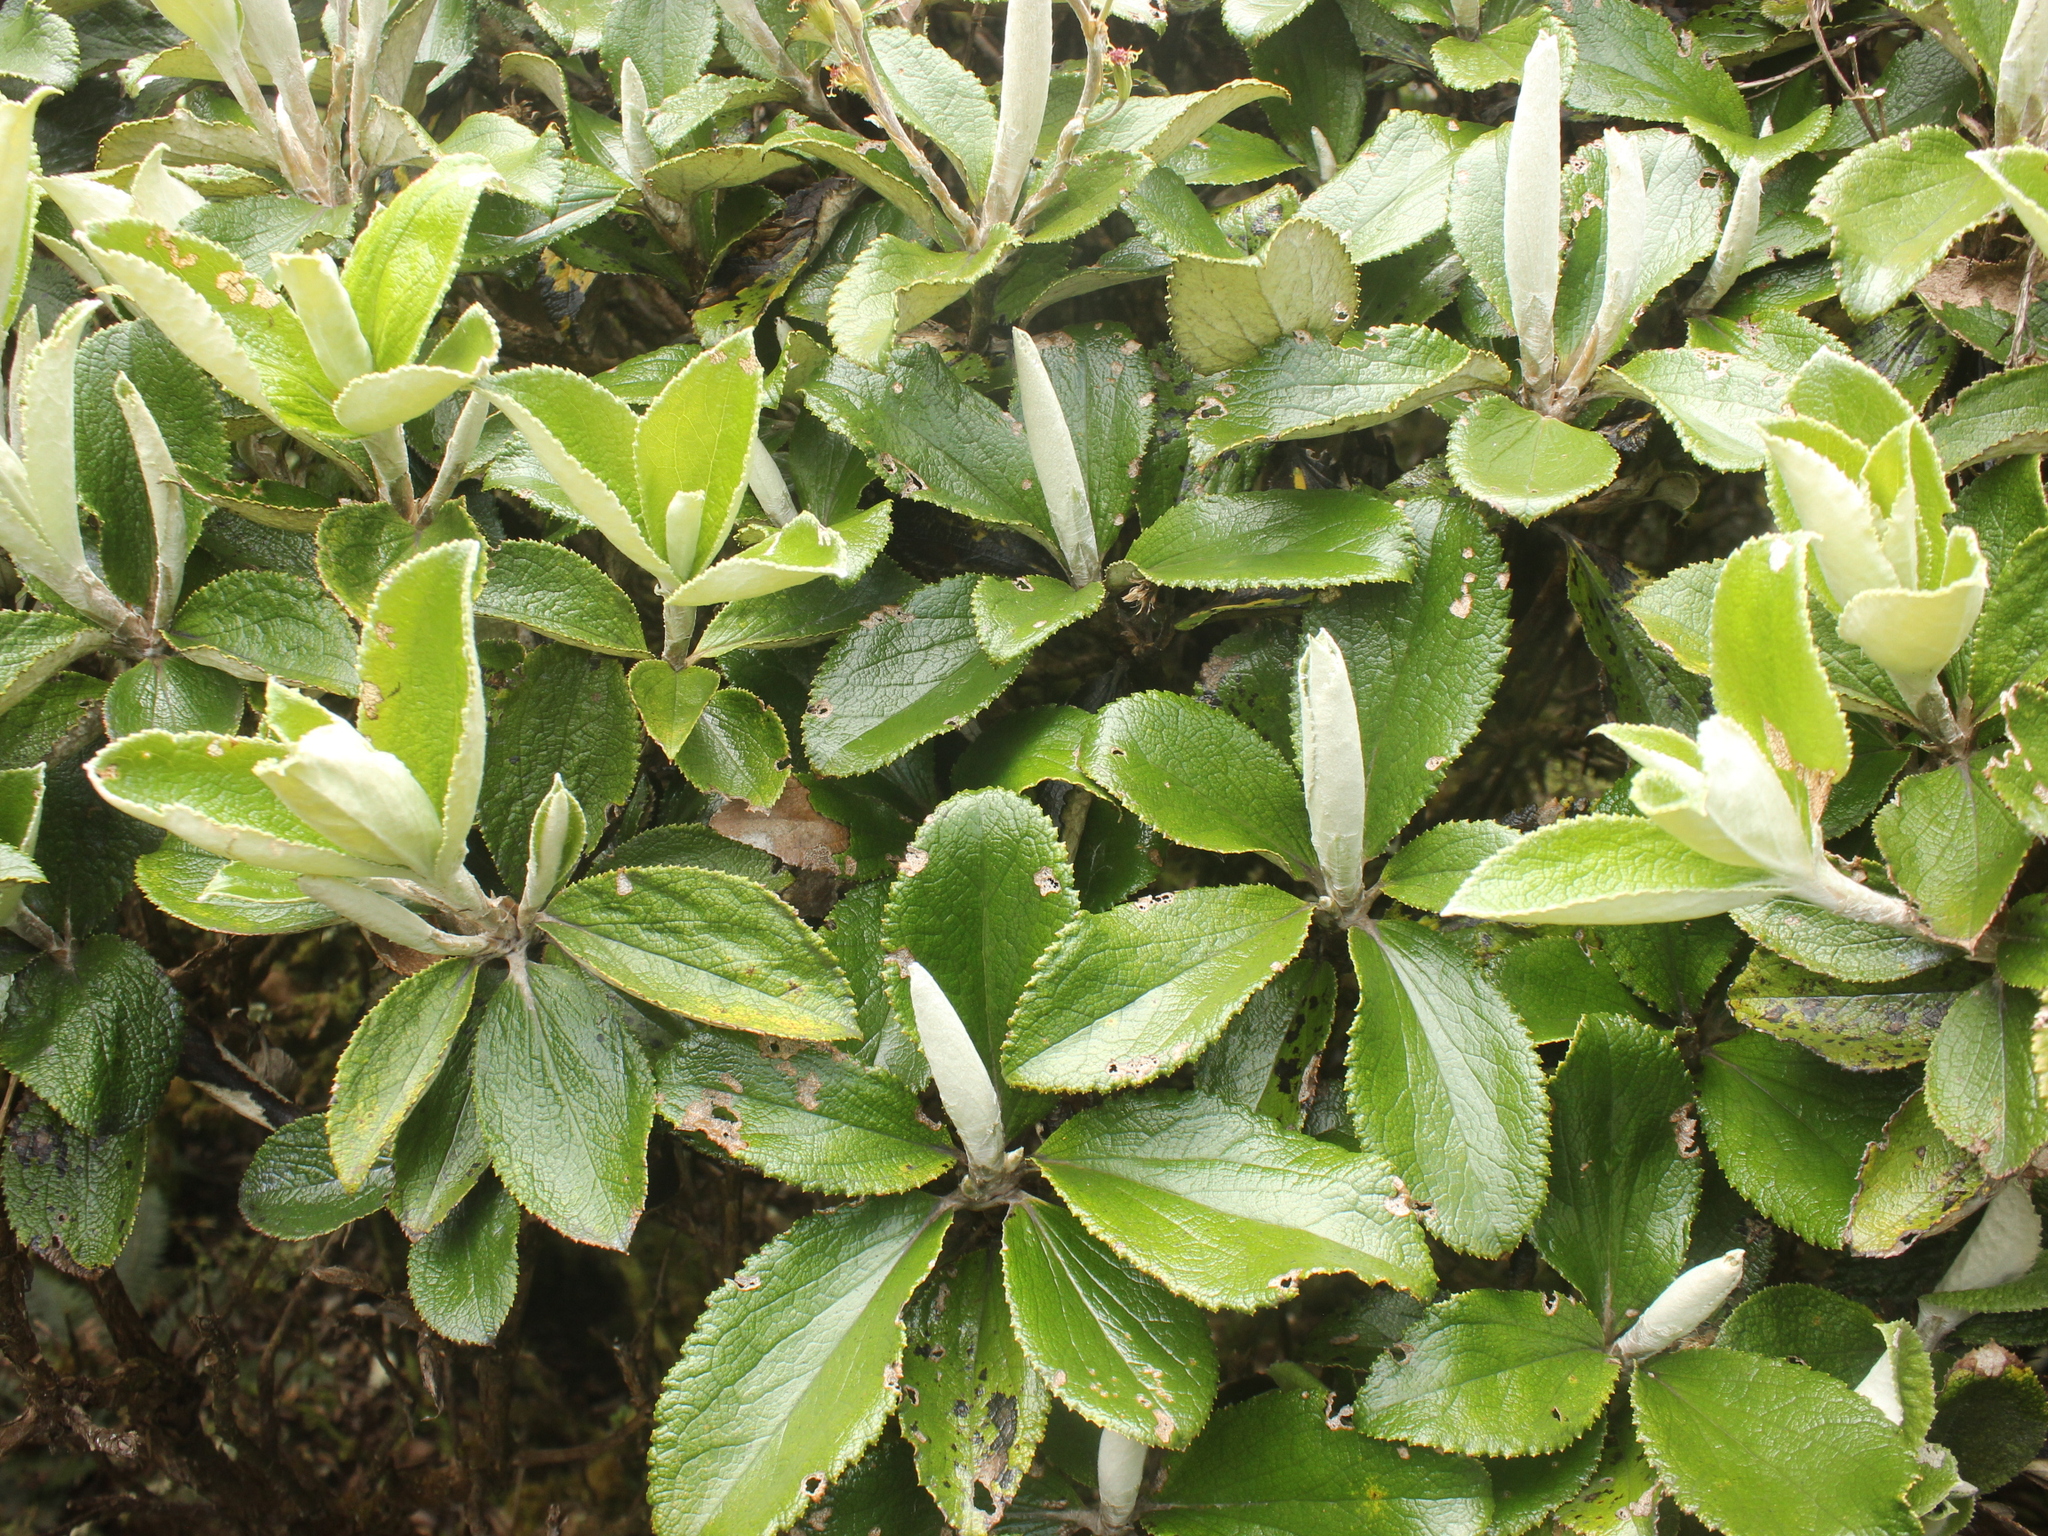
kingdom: Plantae
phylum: Tracheophyta
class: Magnoliopsida
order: Asterales
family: Asteraceae
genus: Macrolearia
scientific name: Macrolearia colensoi
